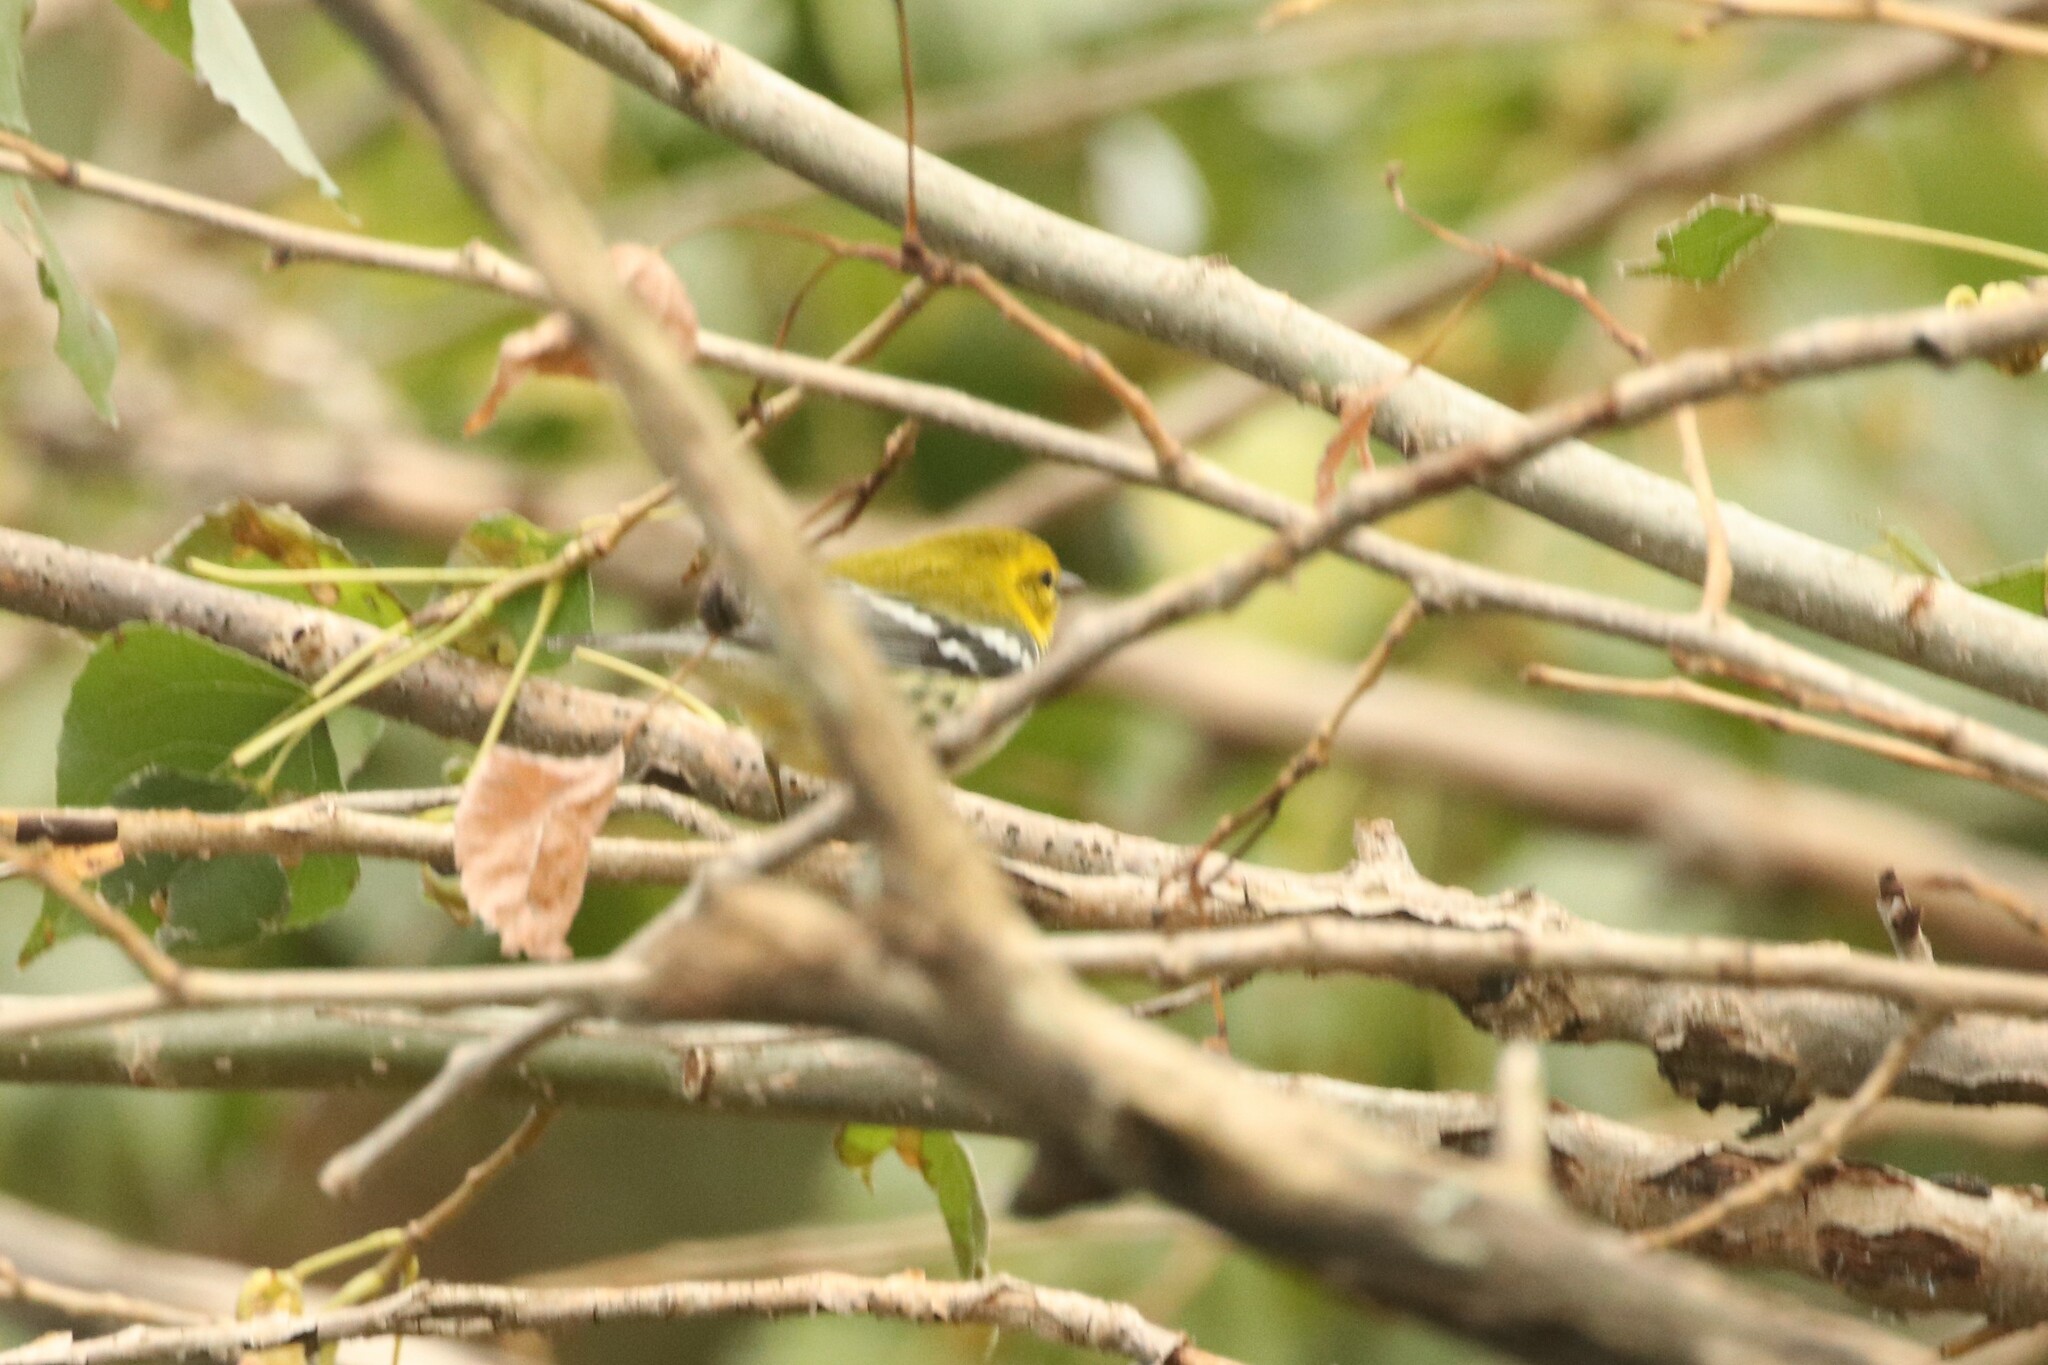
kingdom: Animalia
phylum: Chordata
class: Aves
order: Passeriformes
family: Parulidae
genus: Setophaga
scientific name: Setophaga virens
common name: Black-throated green warbler
